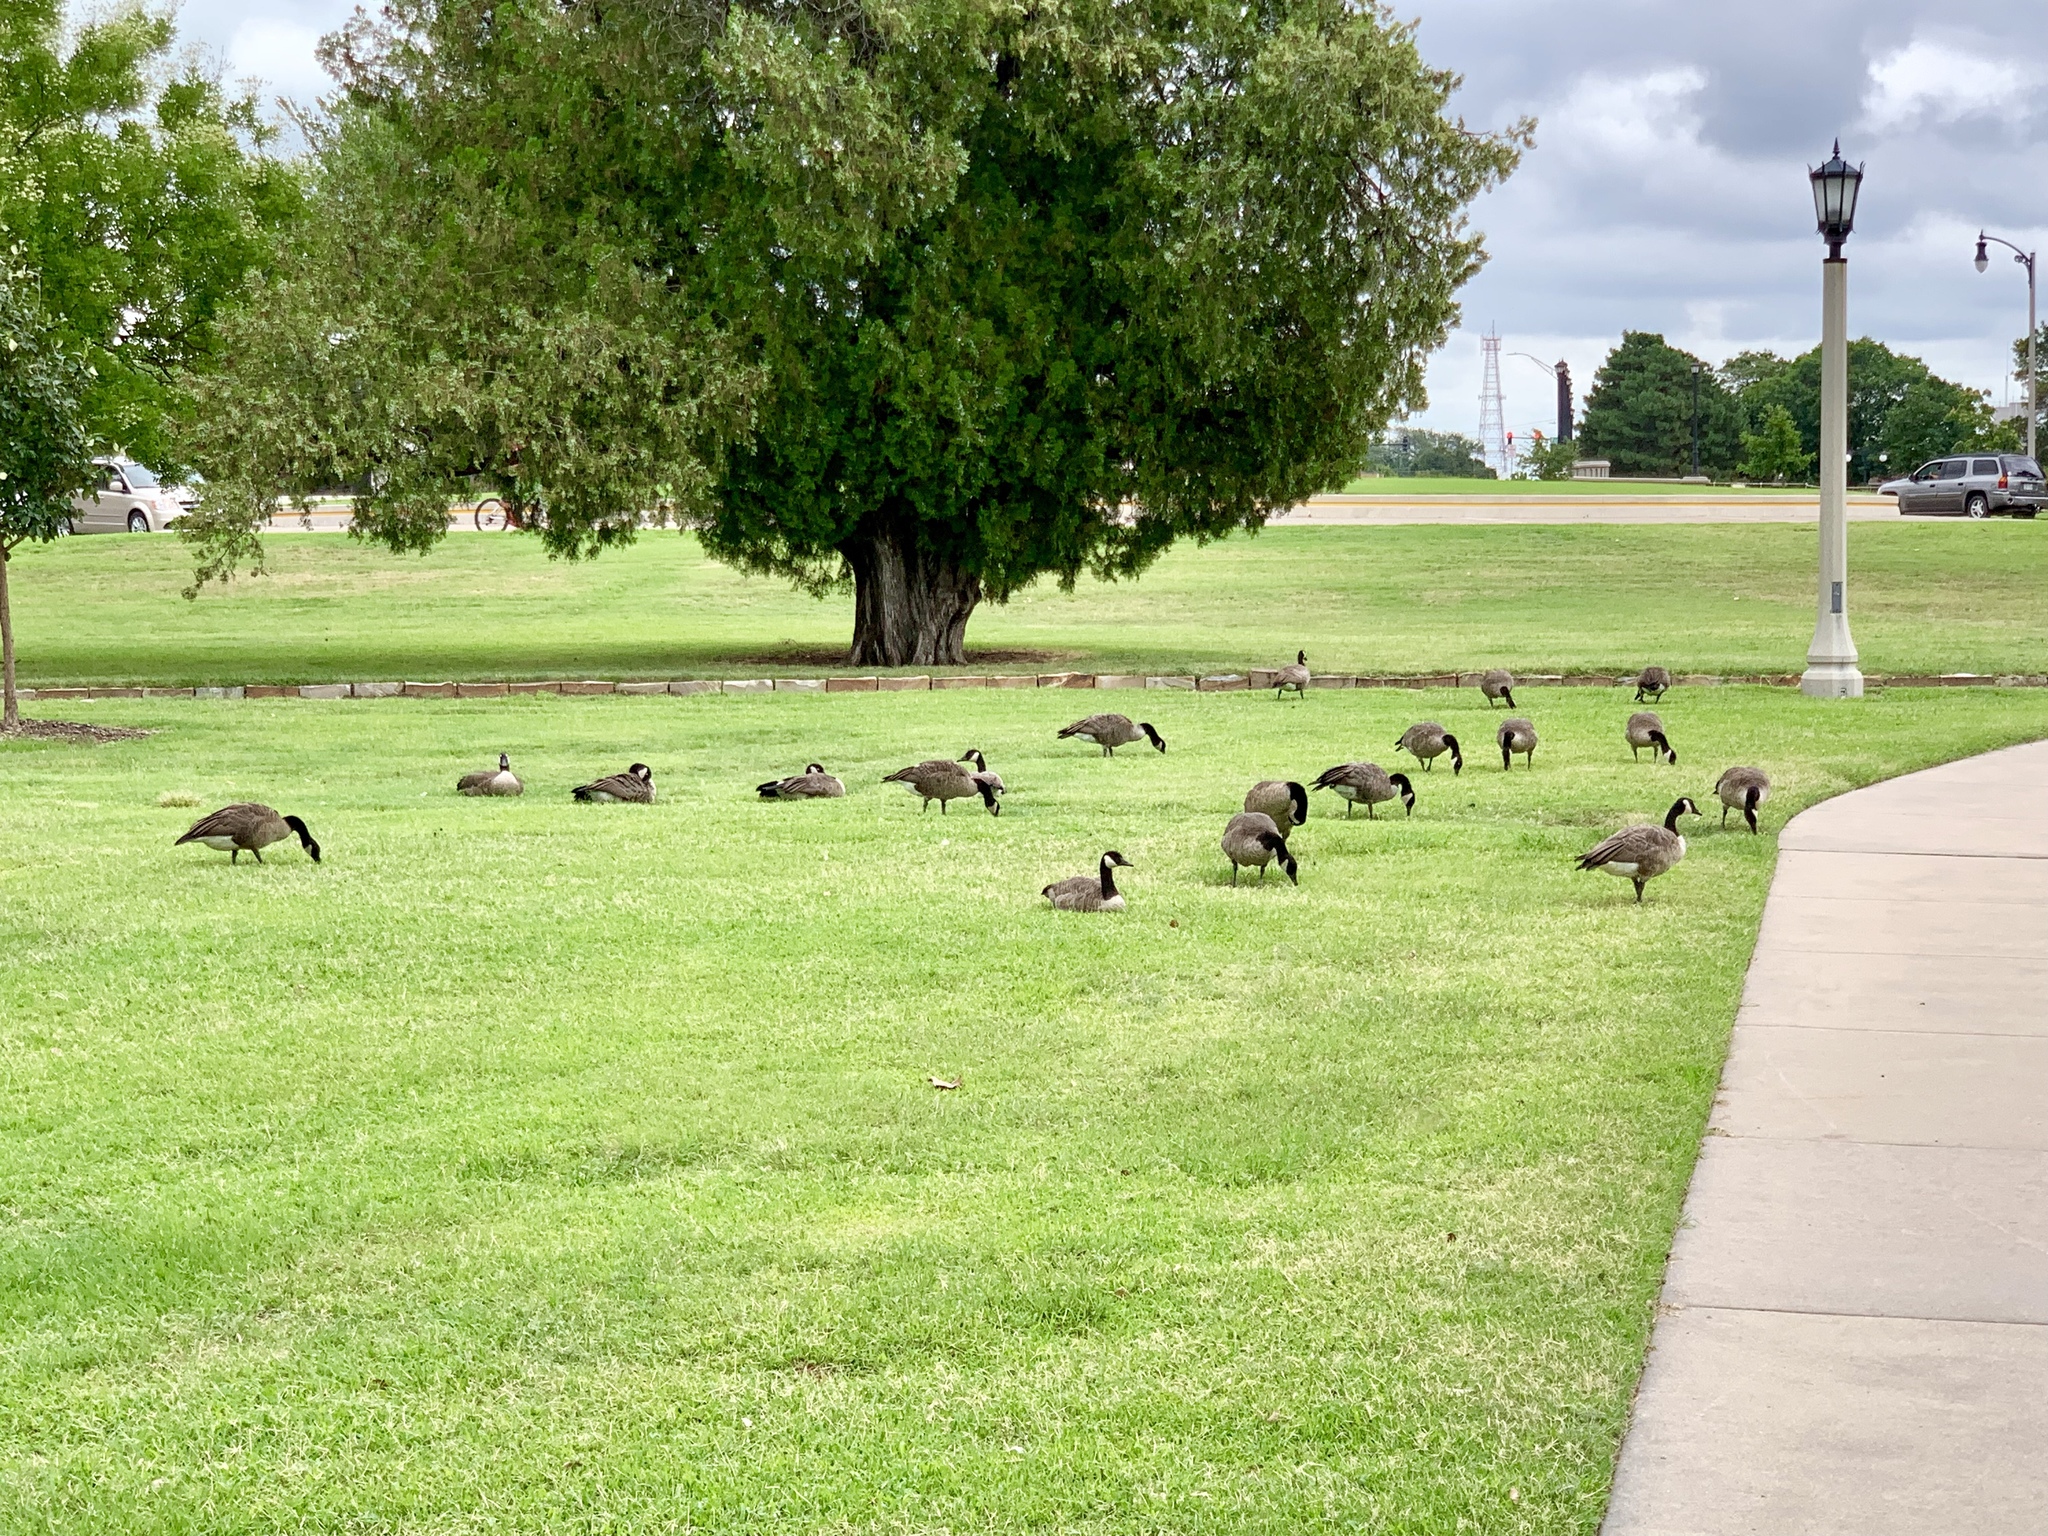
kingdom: Animalia
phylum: Chordata
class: Aves
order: Anseriformes
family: Anatidae
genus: Branta
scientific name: Branta canadensis
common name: Canada goose
